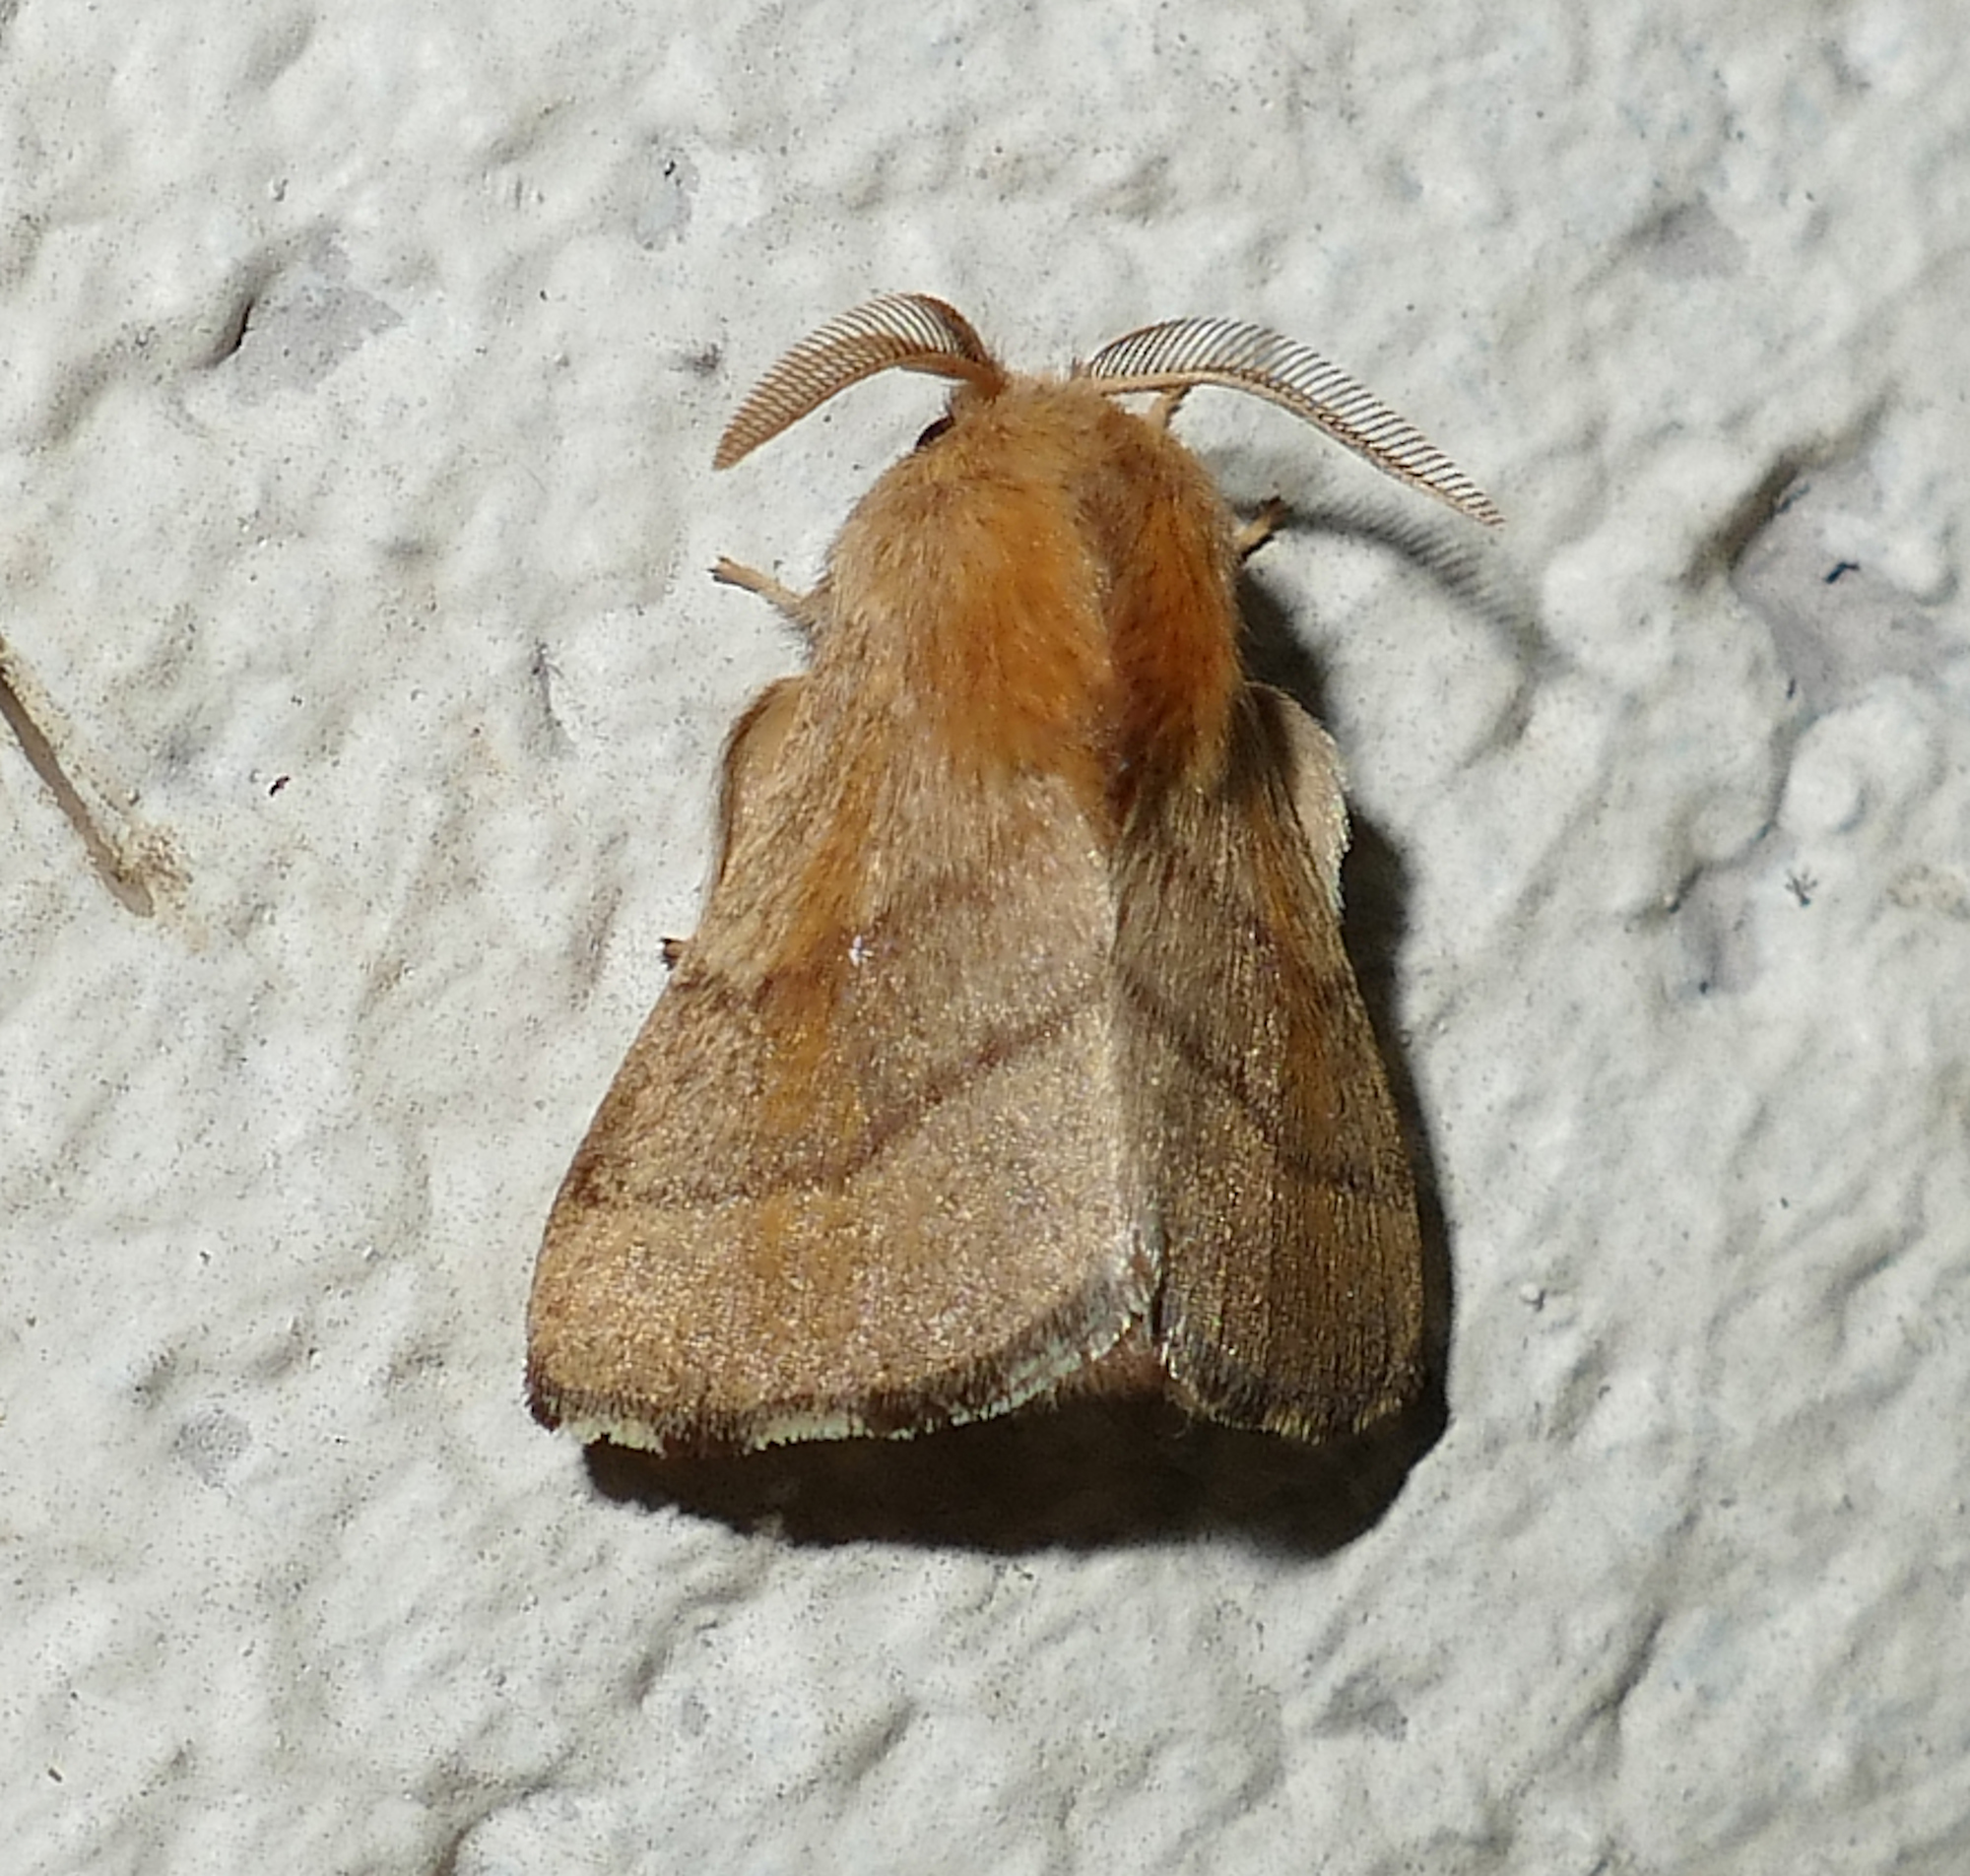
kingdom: Animalia
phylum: Arthropoda
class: Insecta
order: Lepidoptera
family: Lasiocampidae
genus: Malacosoma
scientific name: Malacosoma disstria
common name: Forest tent caterpillar
